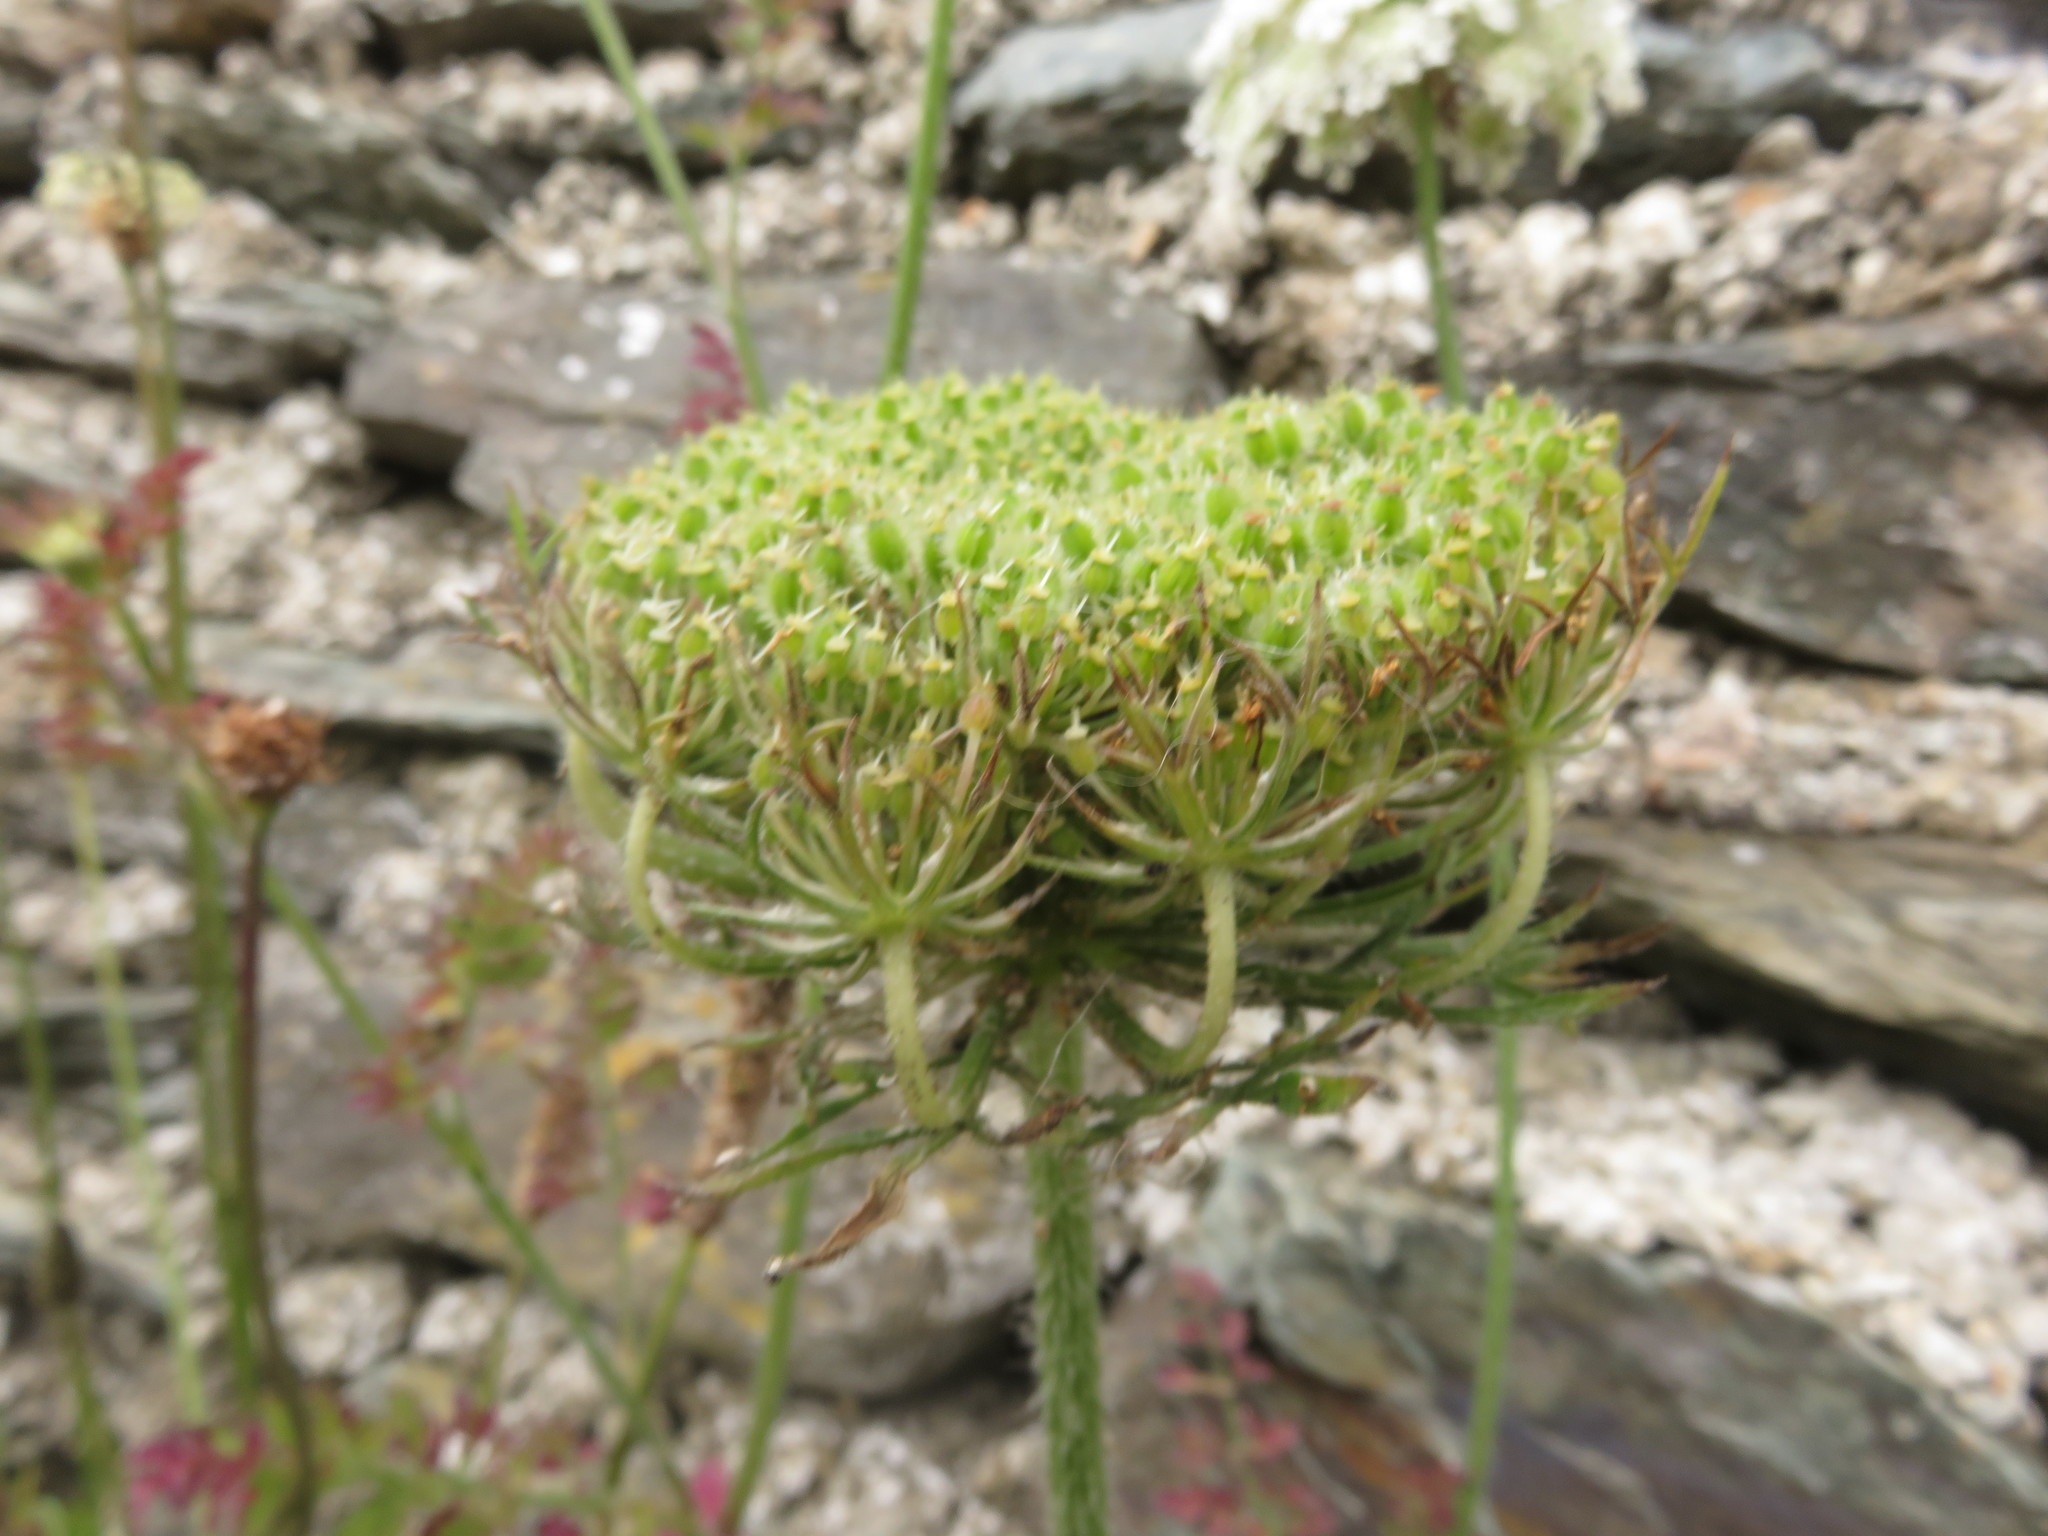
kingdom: Plantae
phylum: Tracheophyta
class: Magnoliopsida
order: Apiales
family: Apiaceae
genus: Daucus
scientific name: Daucus carota
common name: Wild carrot
